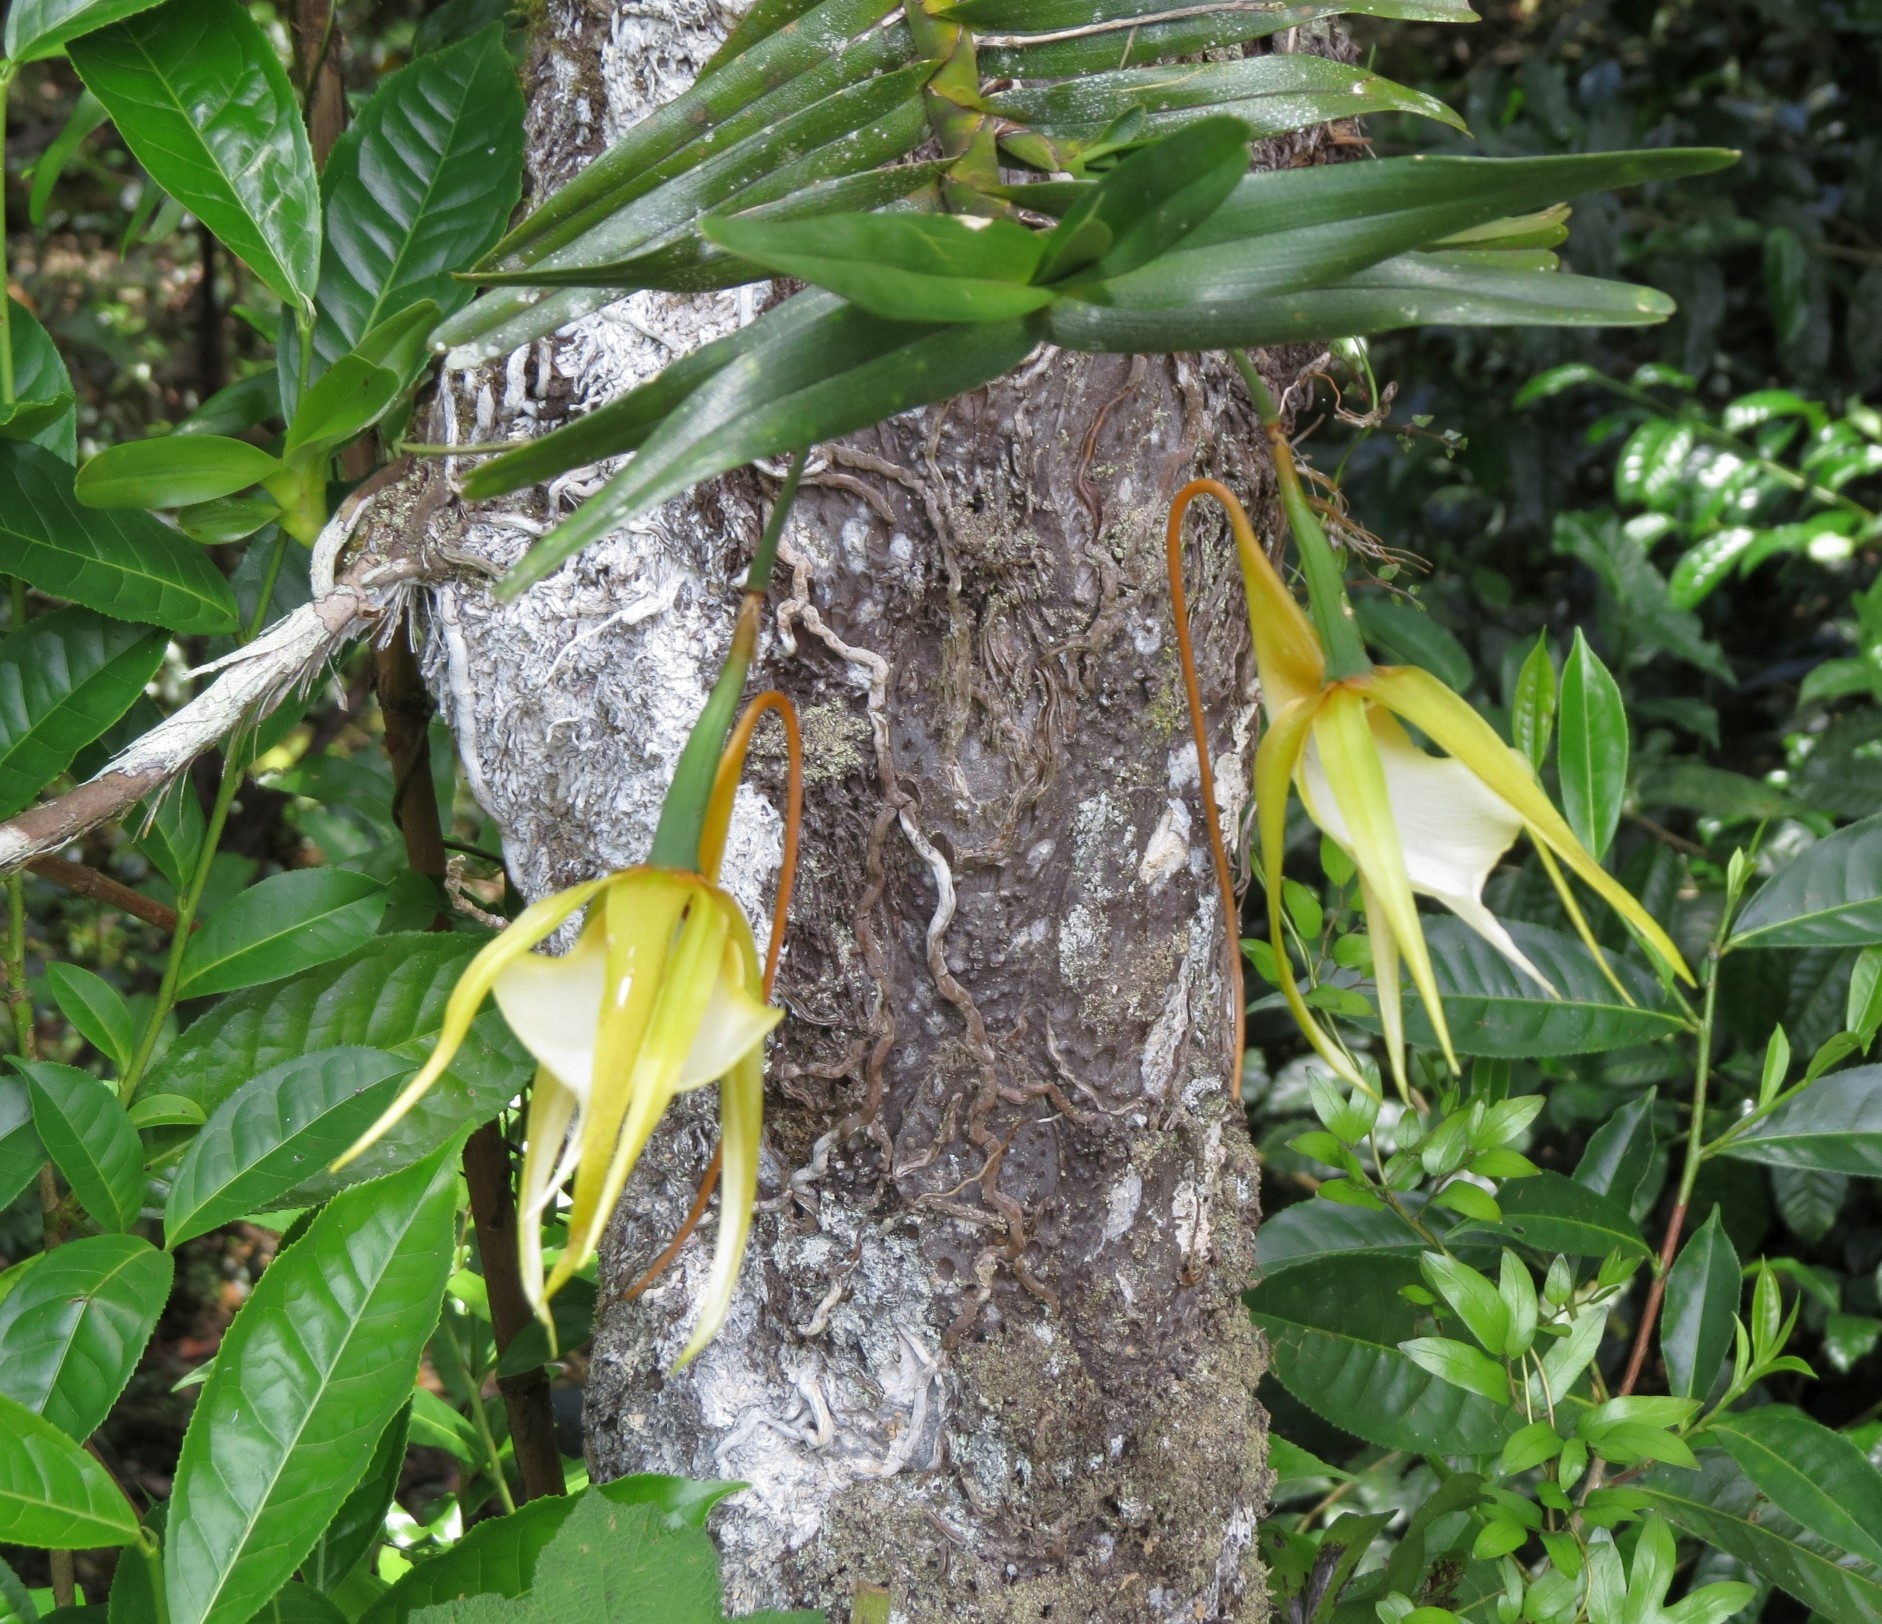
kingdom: Plantae
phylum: Tracheophyta
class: Liliopsida
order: Asparagales
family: Orchidaceae
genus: Angraecum
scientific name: Angraecum viguieri
